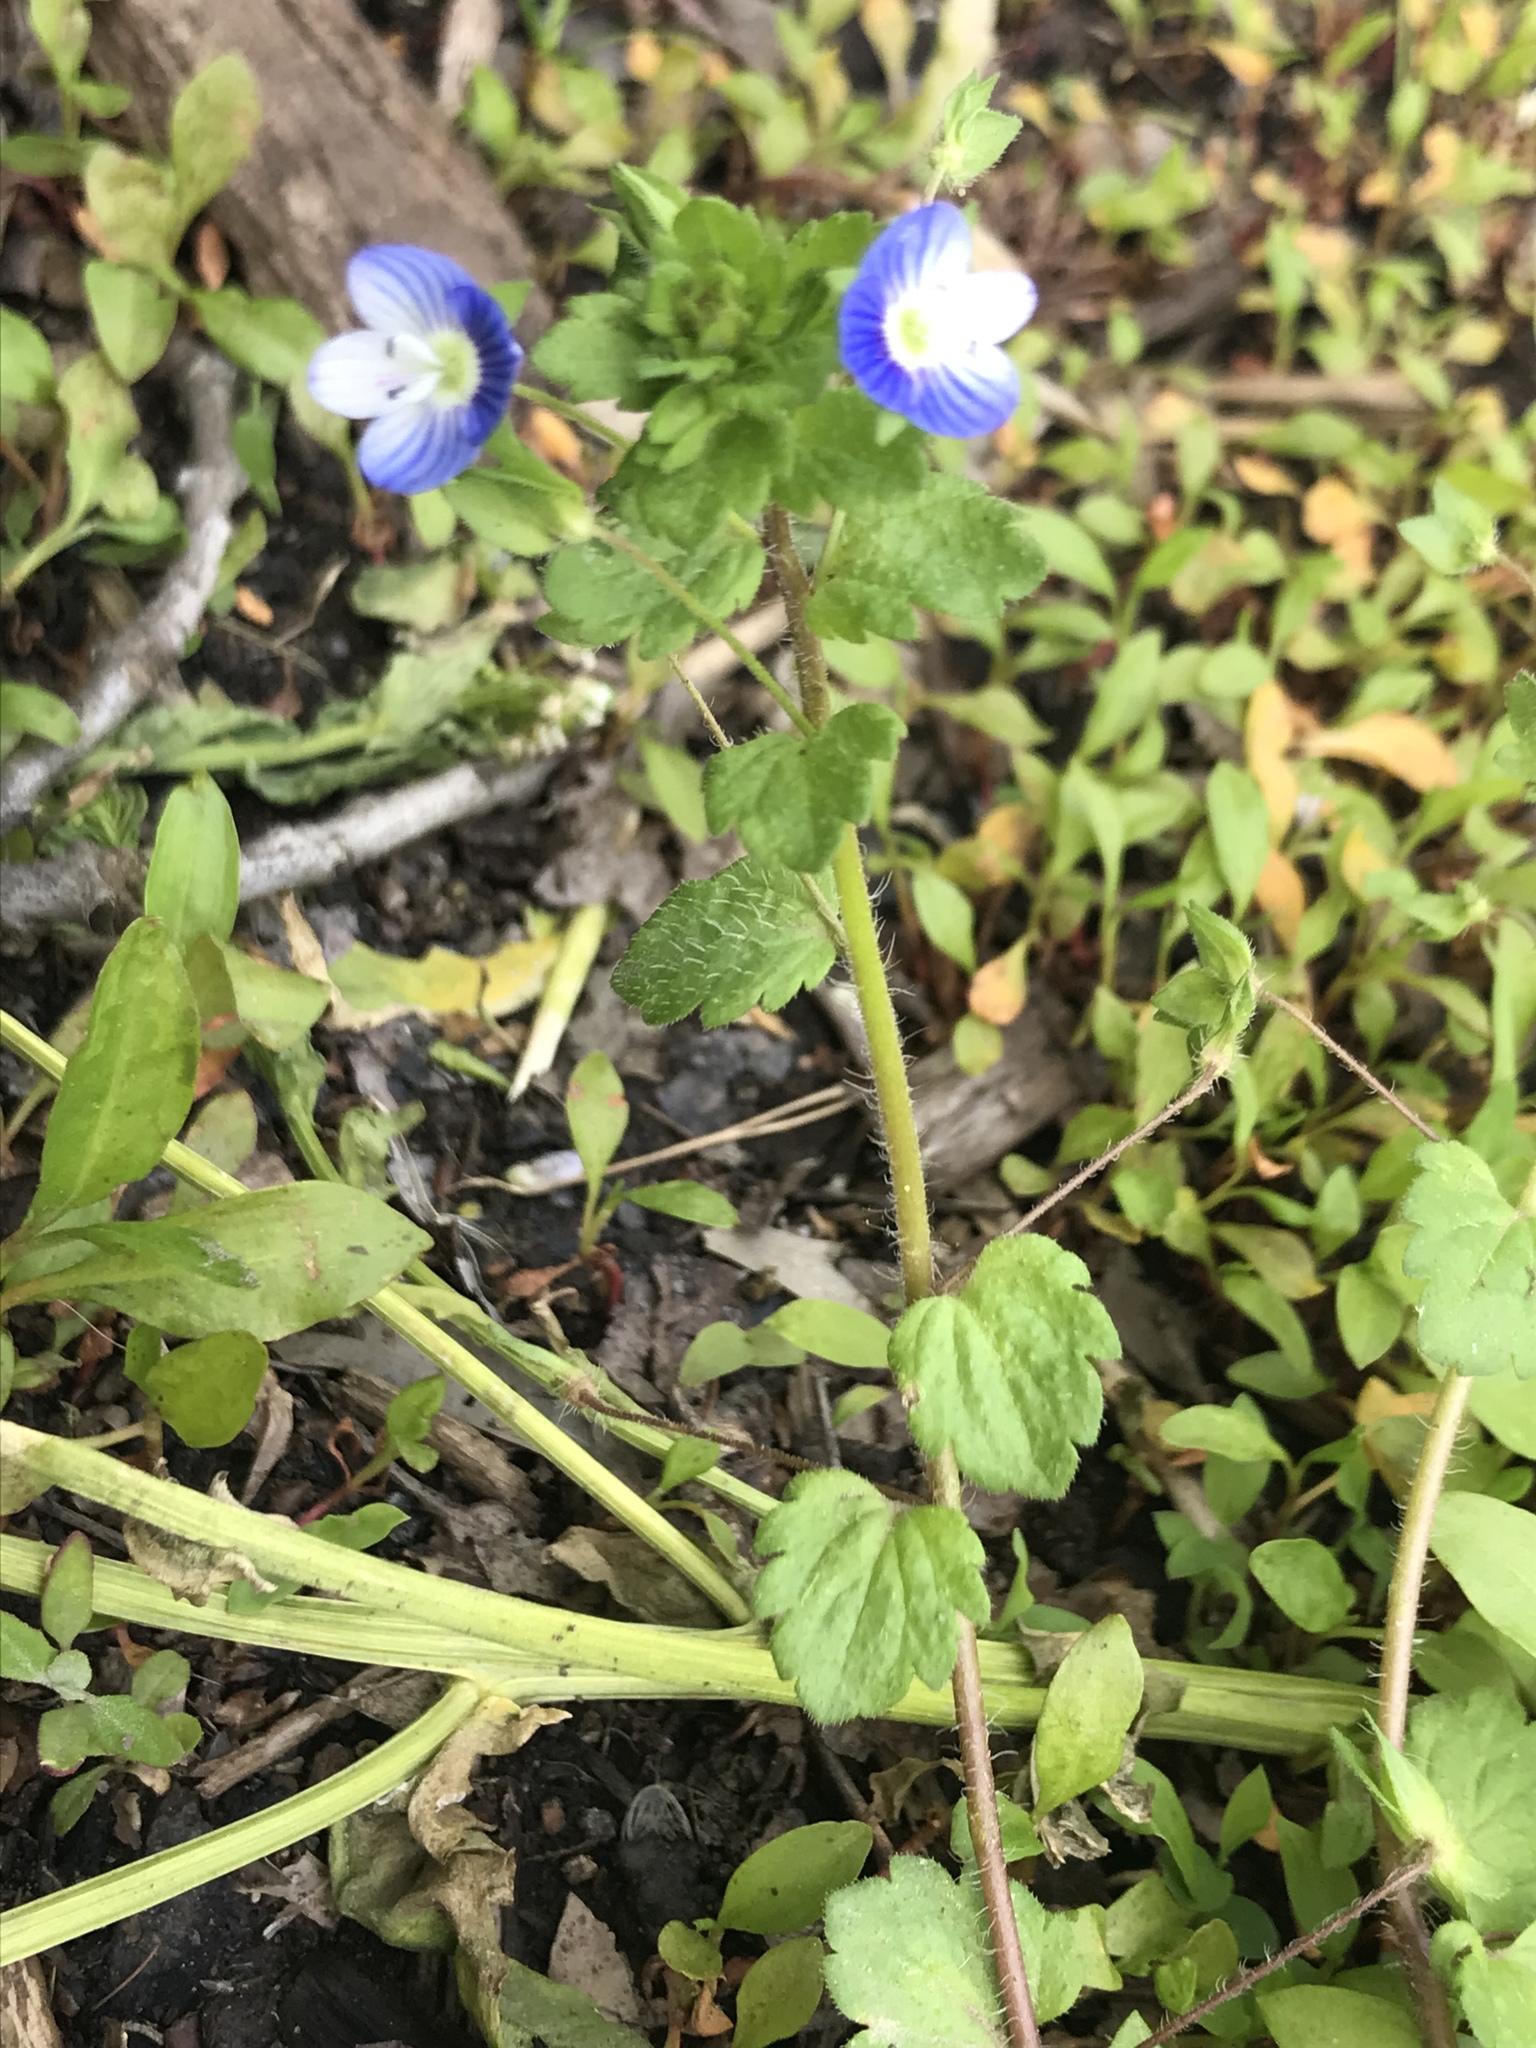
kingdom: Plantae
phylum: Tracheophyta
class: Magnoliopsida
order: Lamiales
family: Plantaginaceae
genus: Veronica
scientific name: Veronica persica
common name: Common field-speedwell
